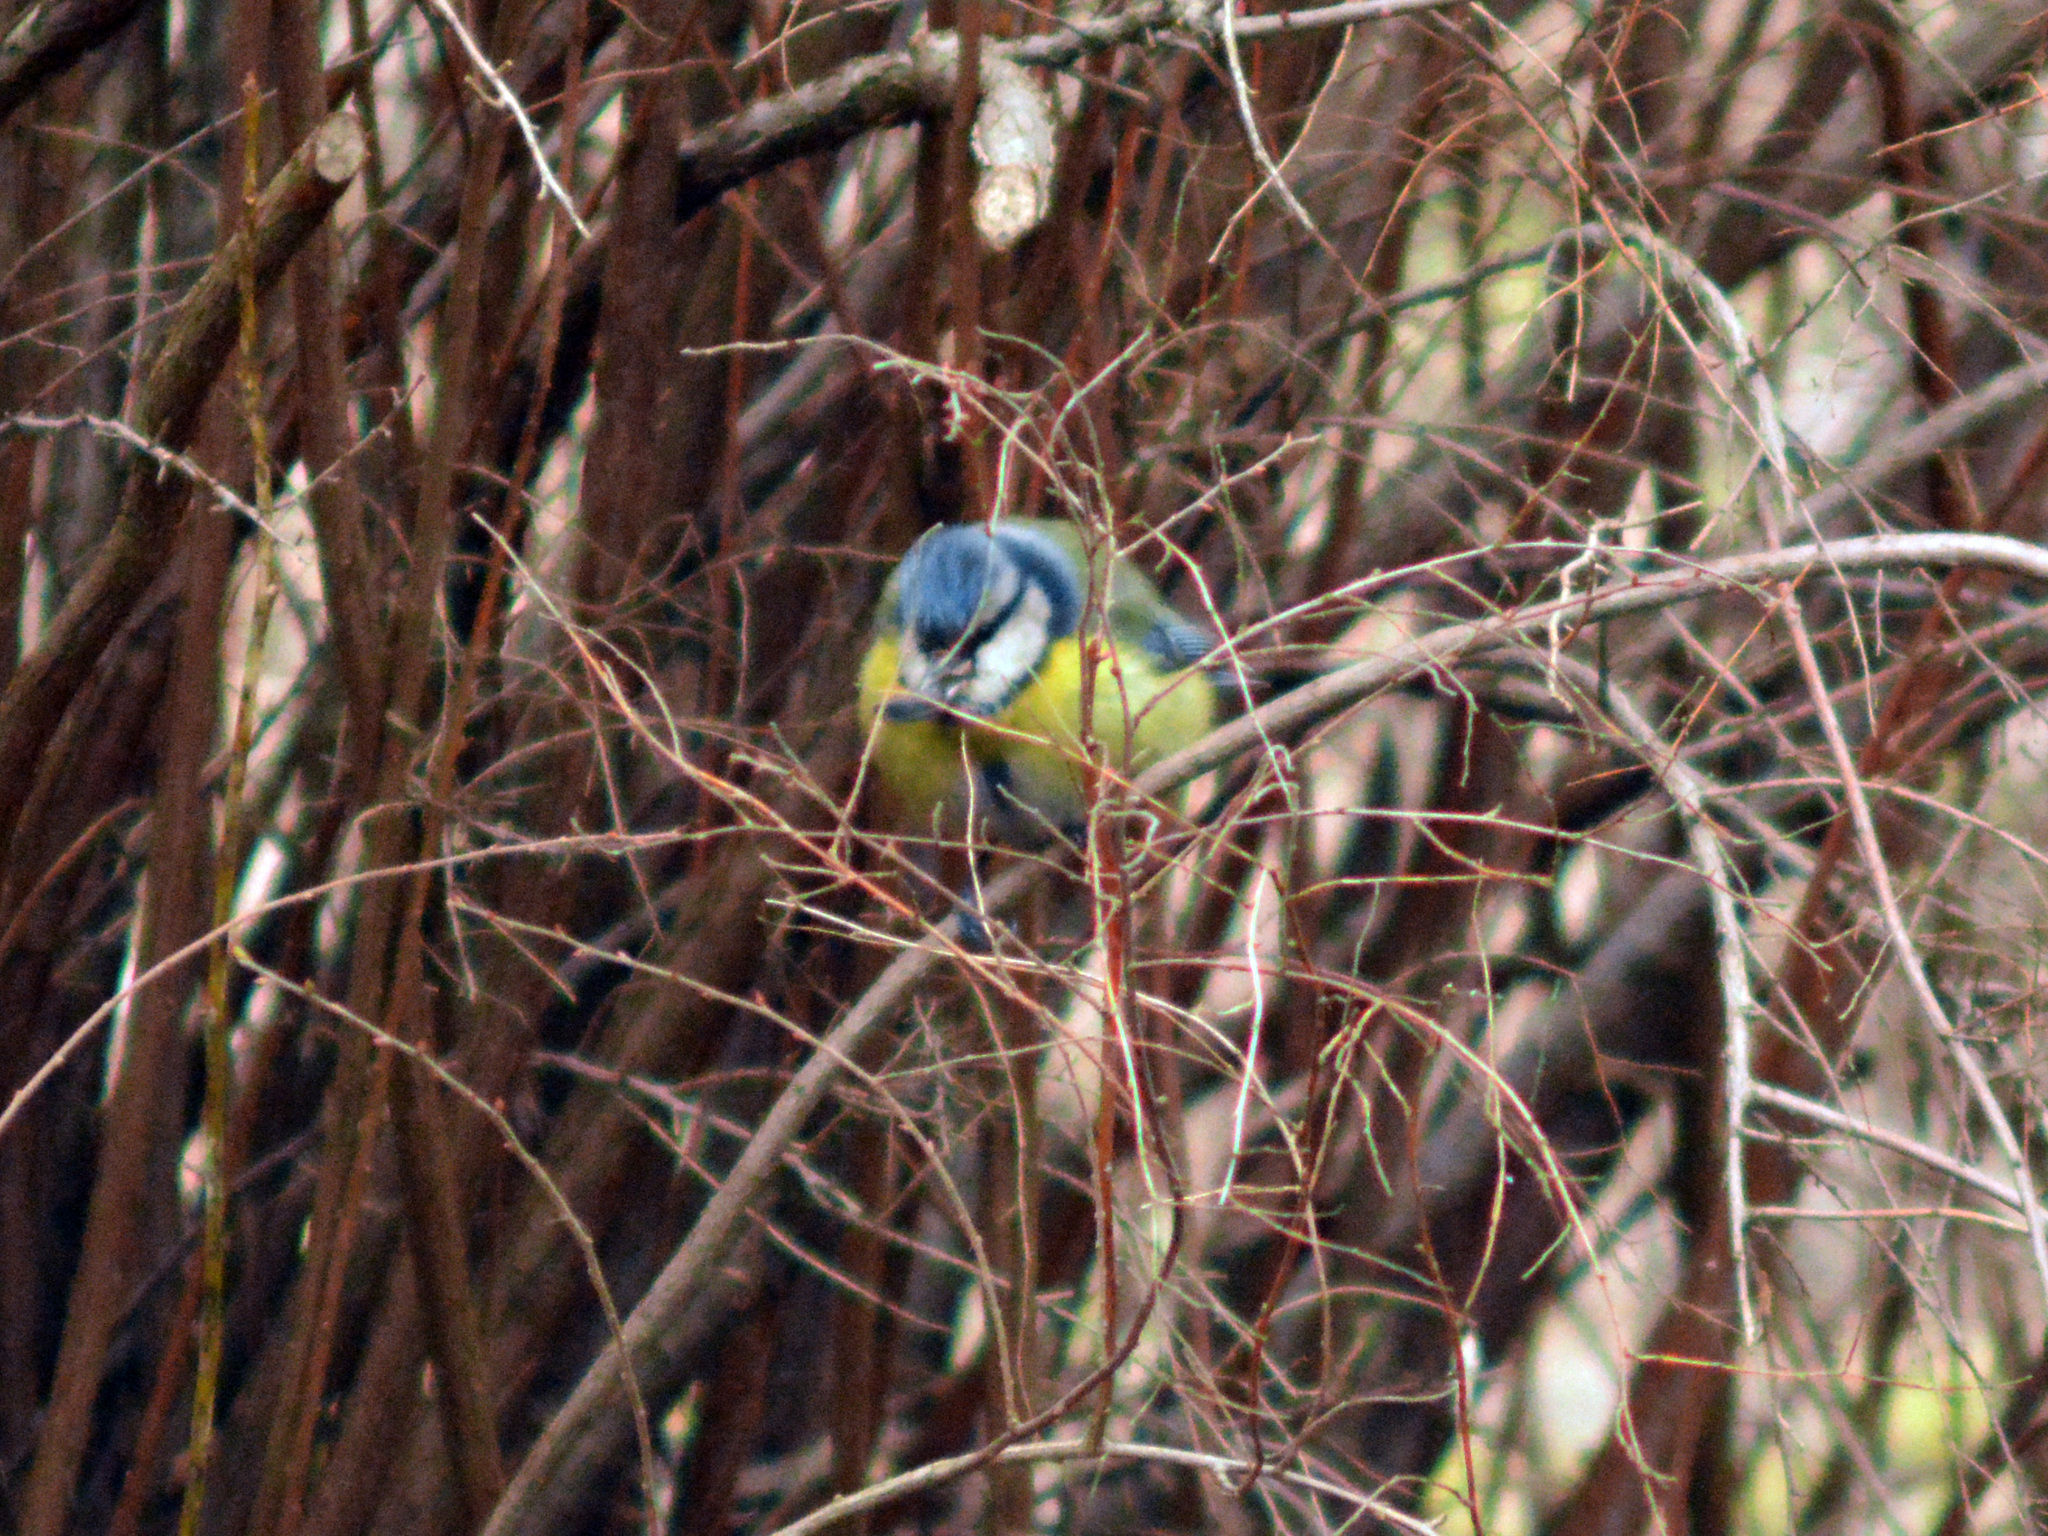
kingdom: Animalia
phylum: Chordata
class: Aves
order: Passeriformes
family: Paridae
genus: Cyanistes
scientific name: Cyanistes caeruleus
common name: Eurasian blue tit
